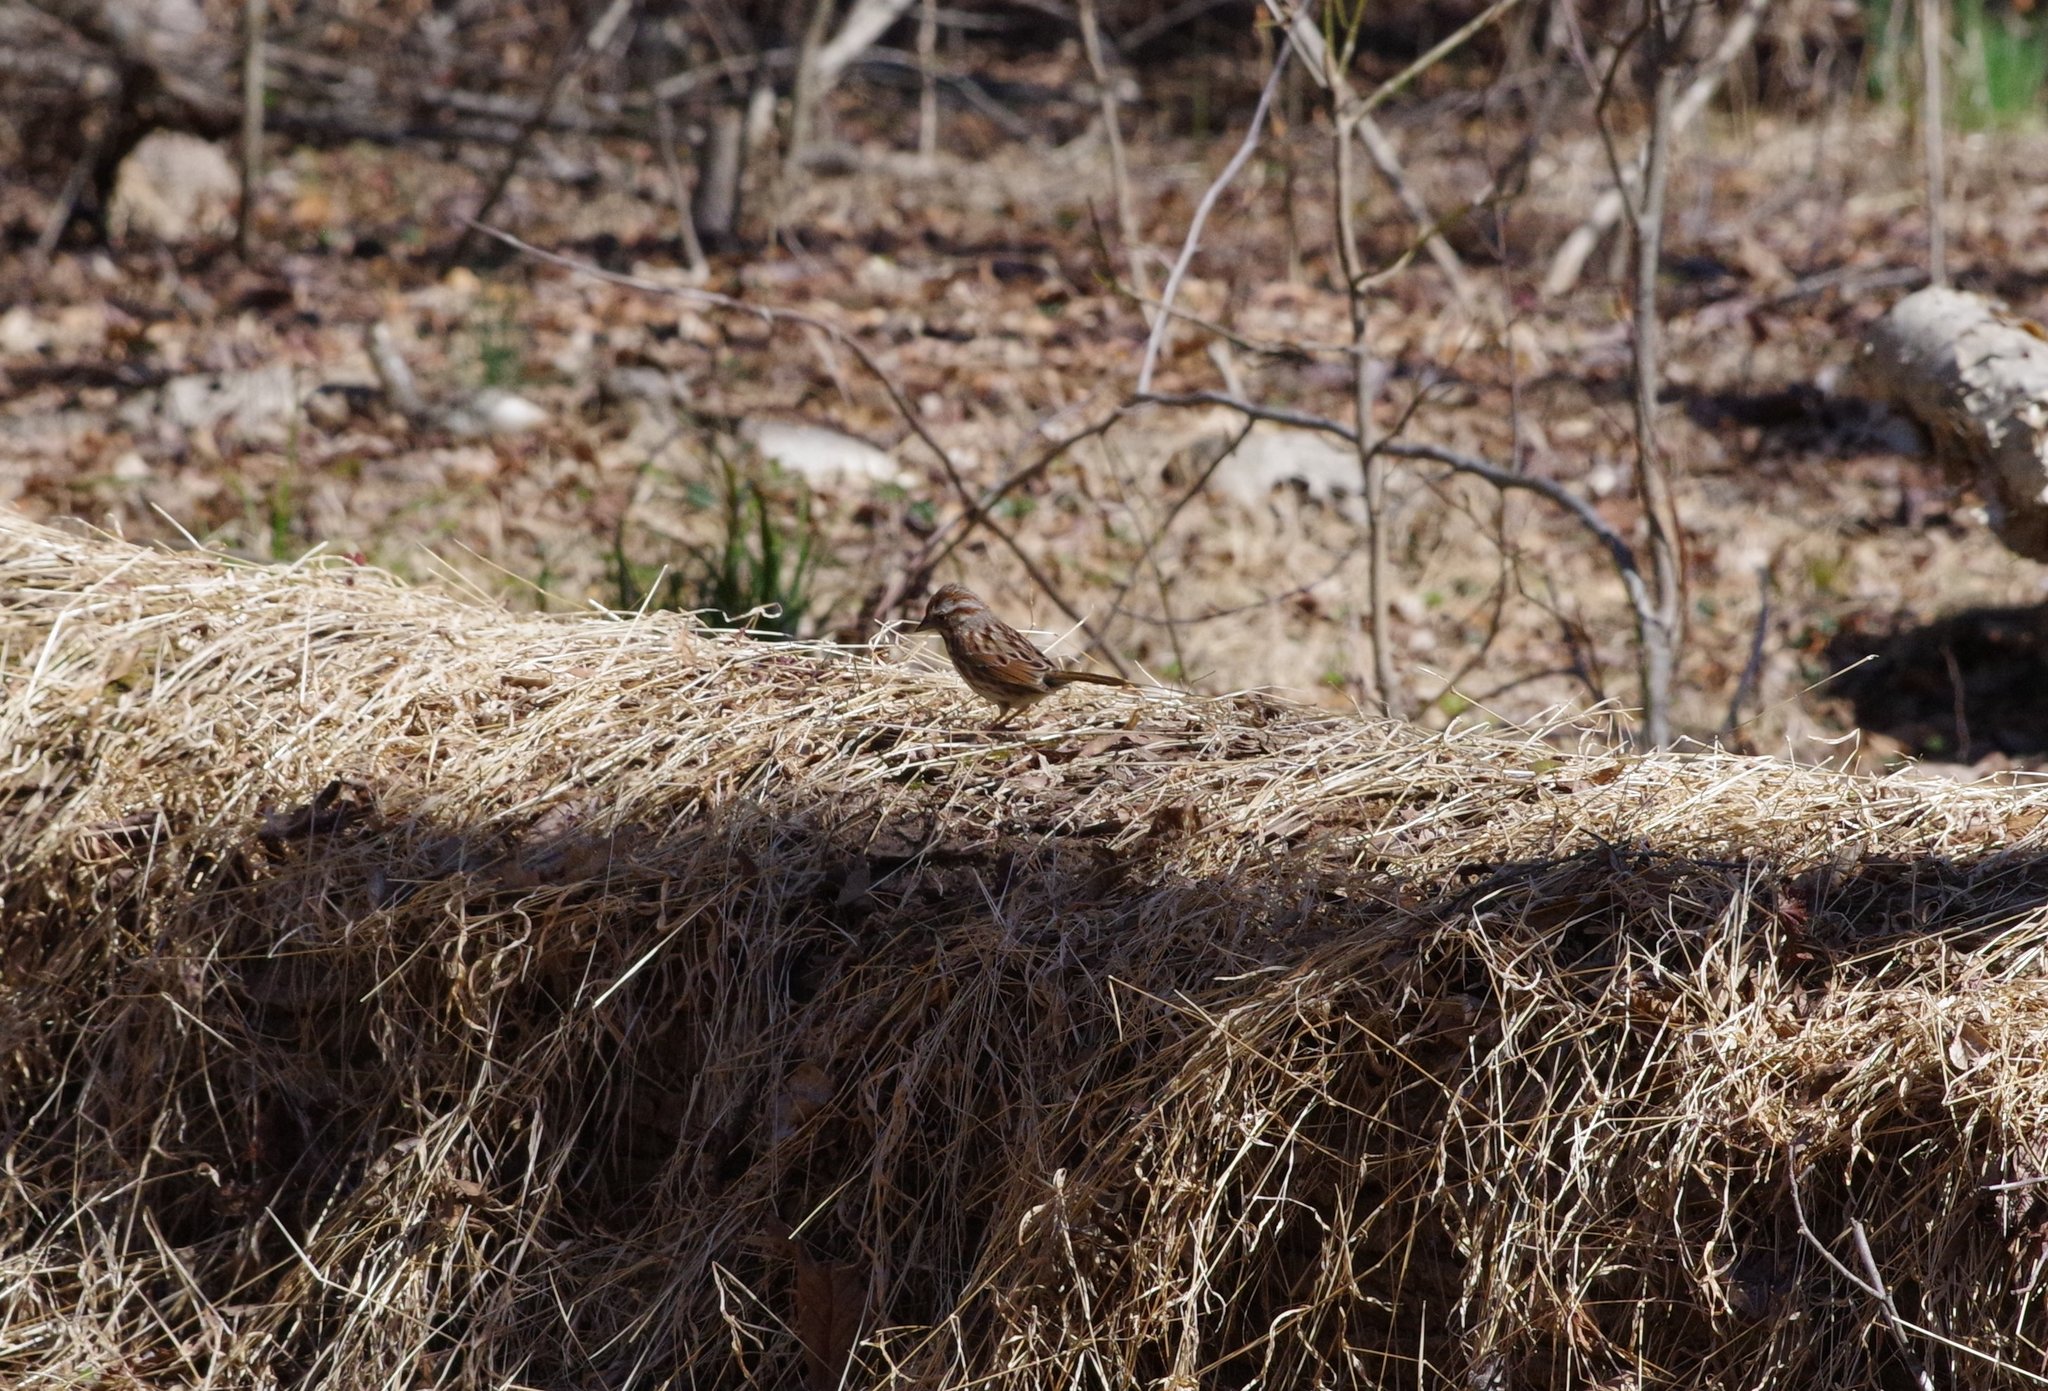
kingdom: Animalia
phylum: Chordata
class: Aves
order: Passeriformes
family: Passerellidae
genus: Melospiza
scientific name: Melospiza melodia
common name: Song sparrow
